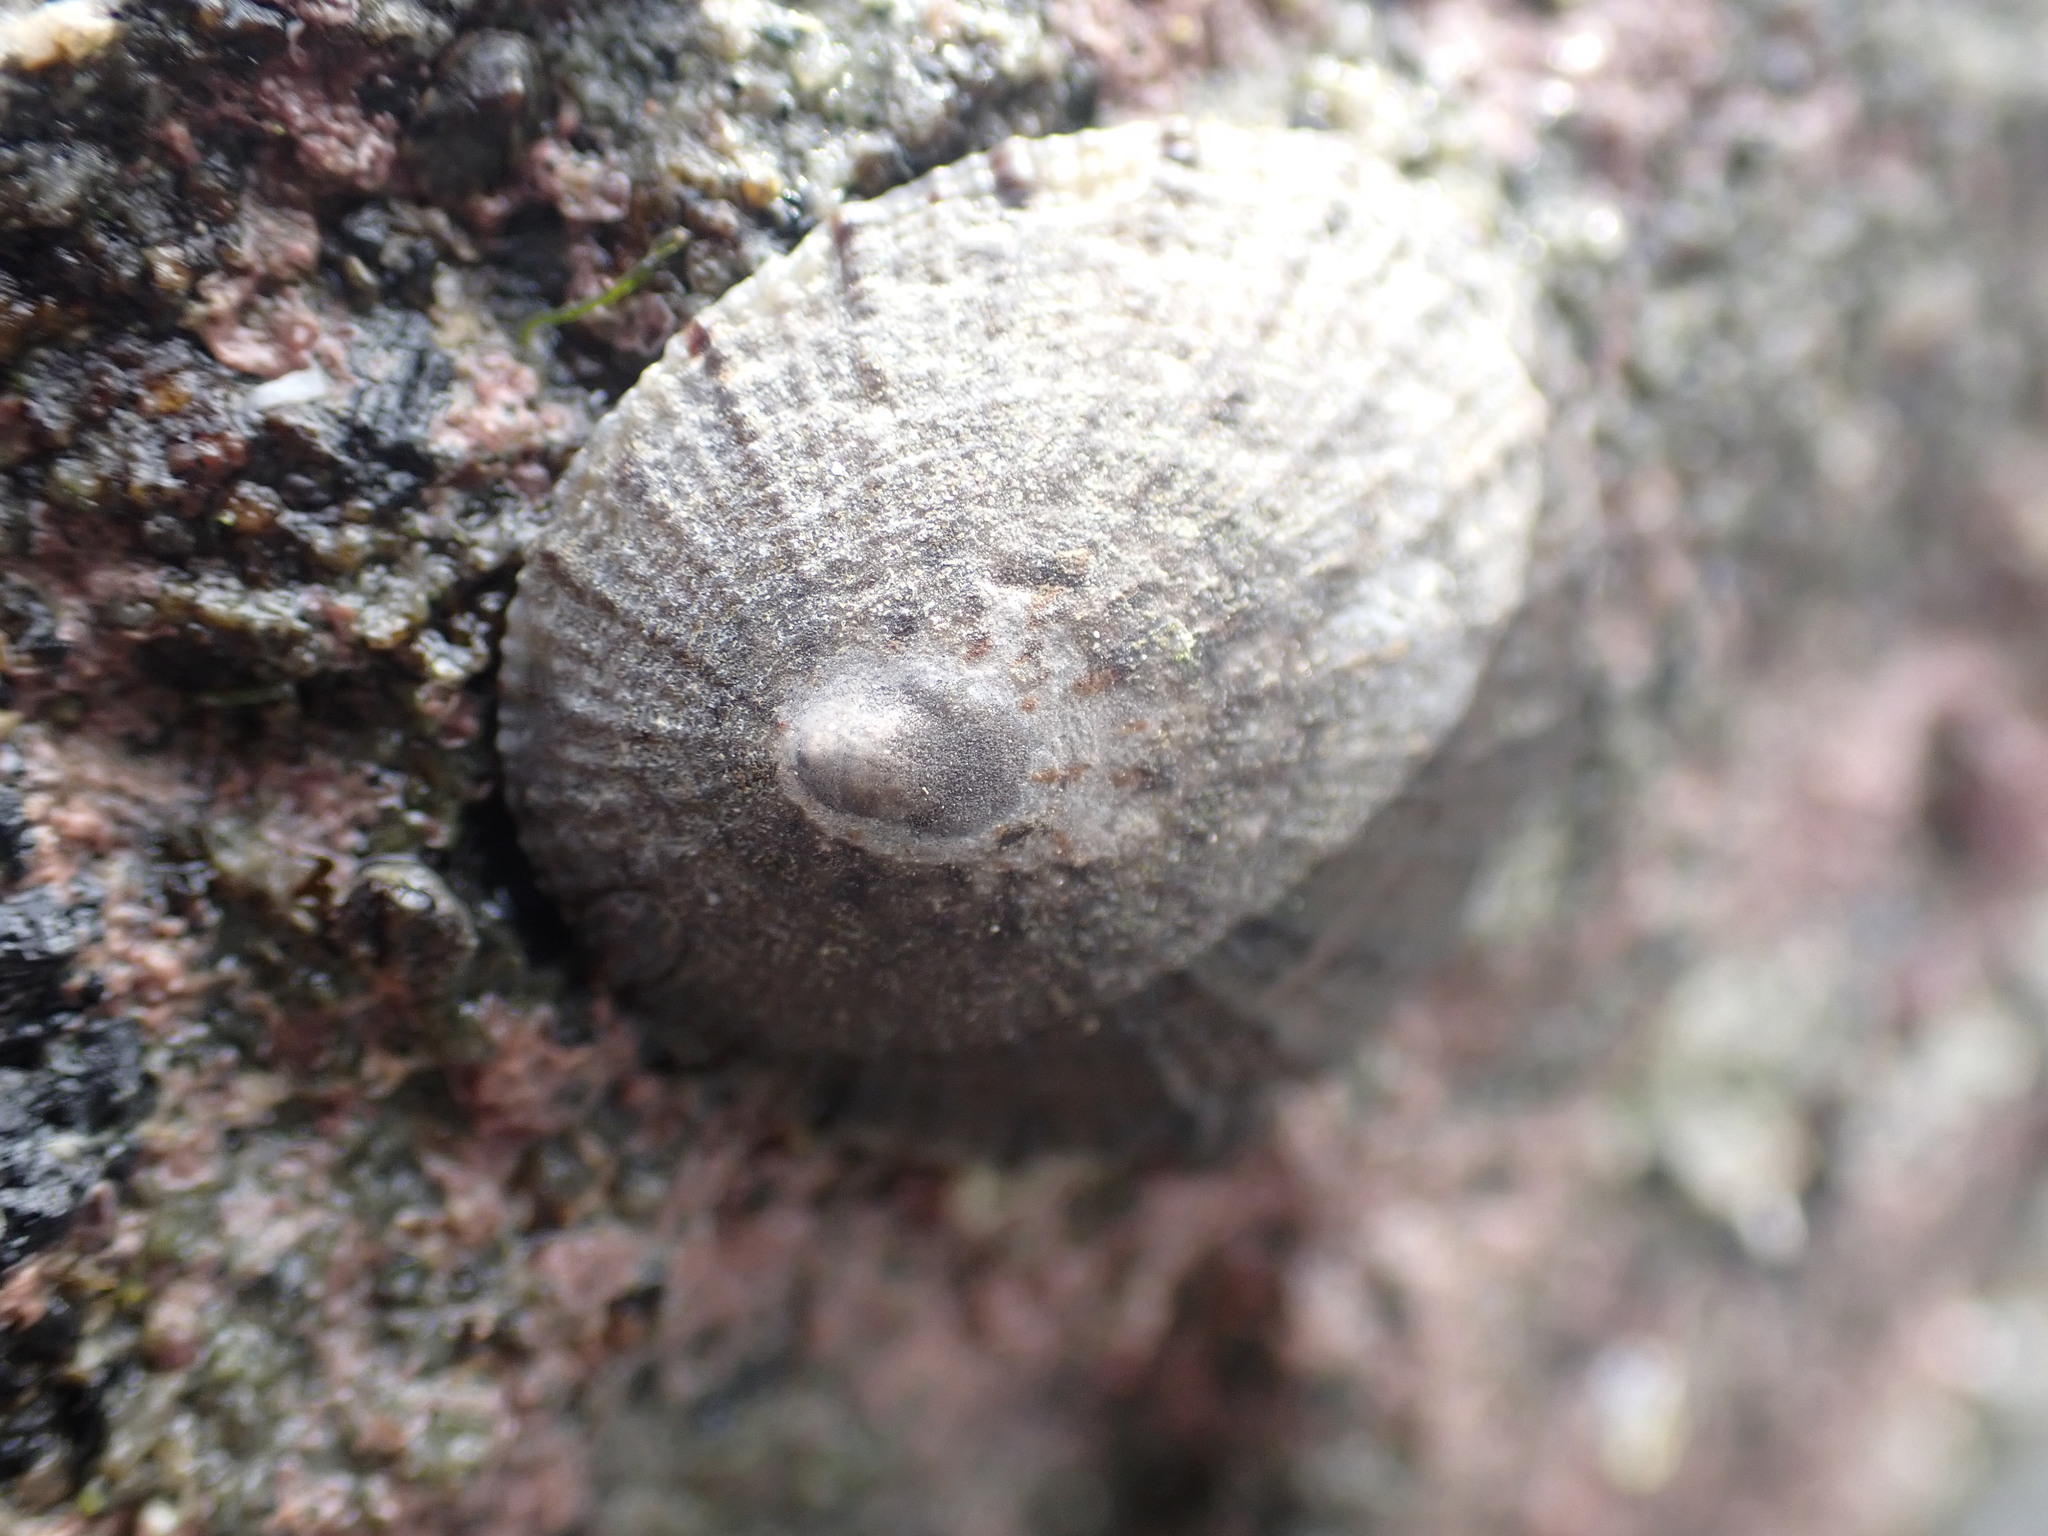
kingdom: Animalia
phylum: Mollusca
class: Gastropoda
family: Nacellidae
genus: Cellana
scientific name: Cellana radians
